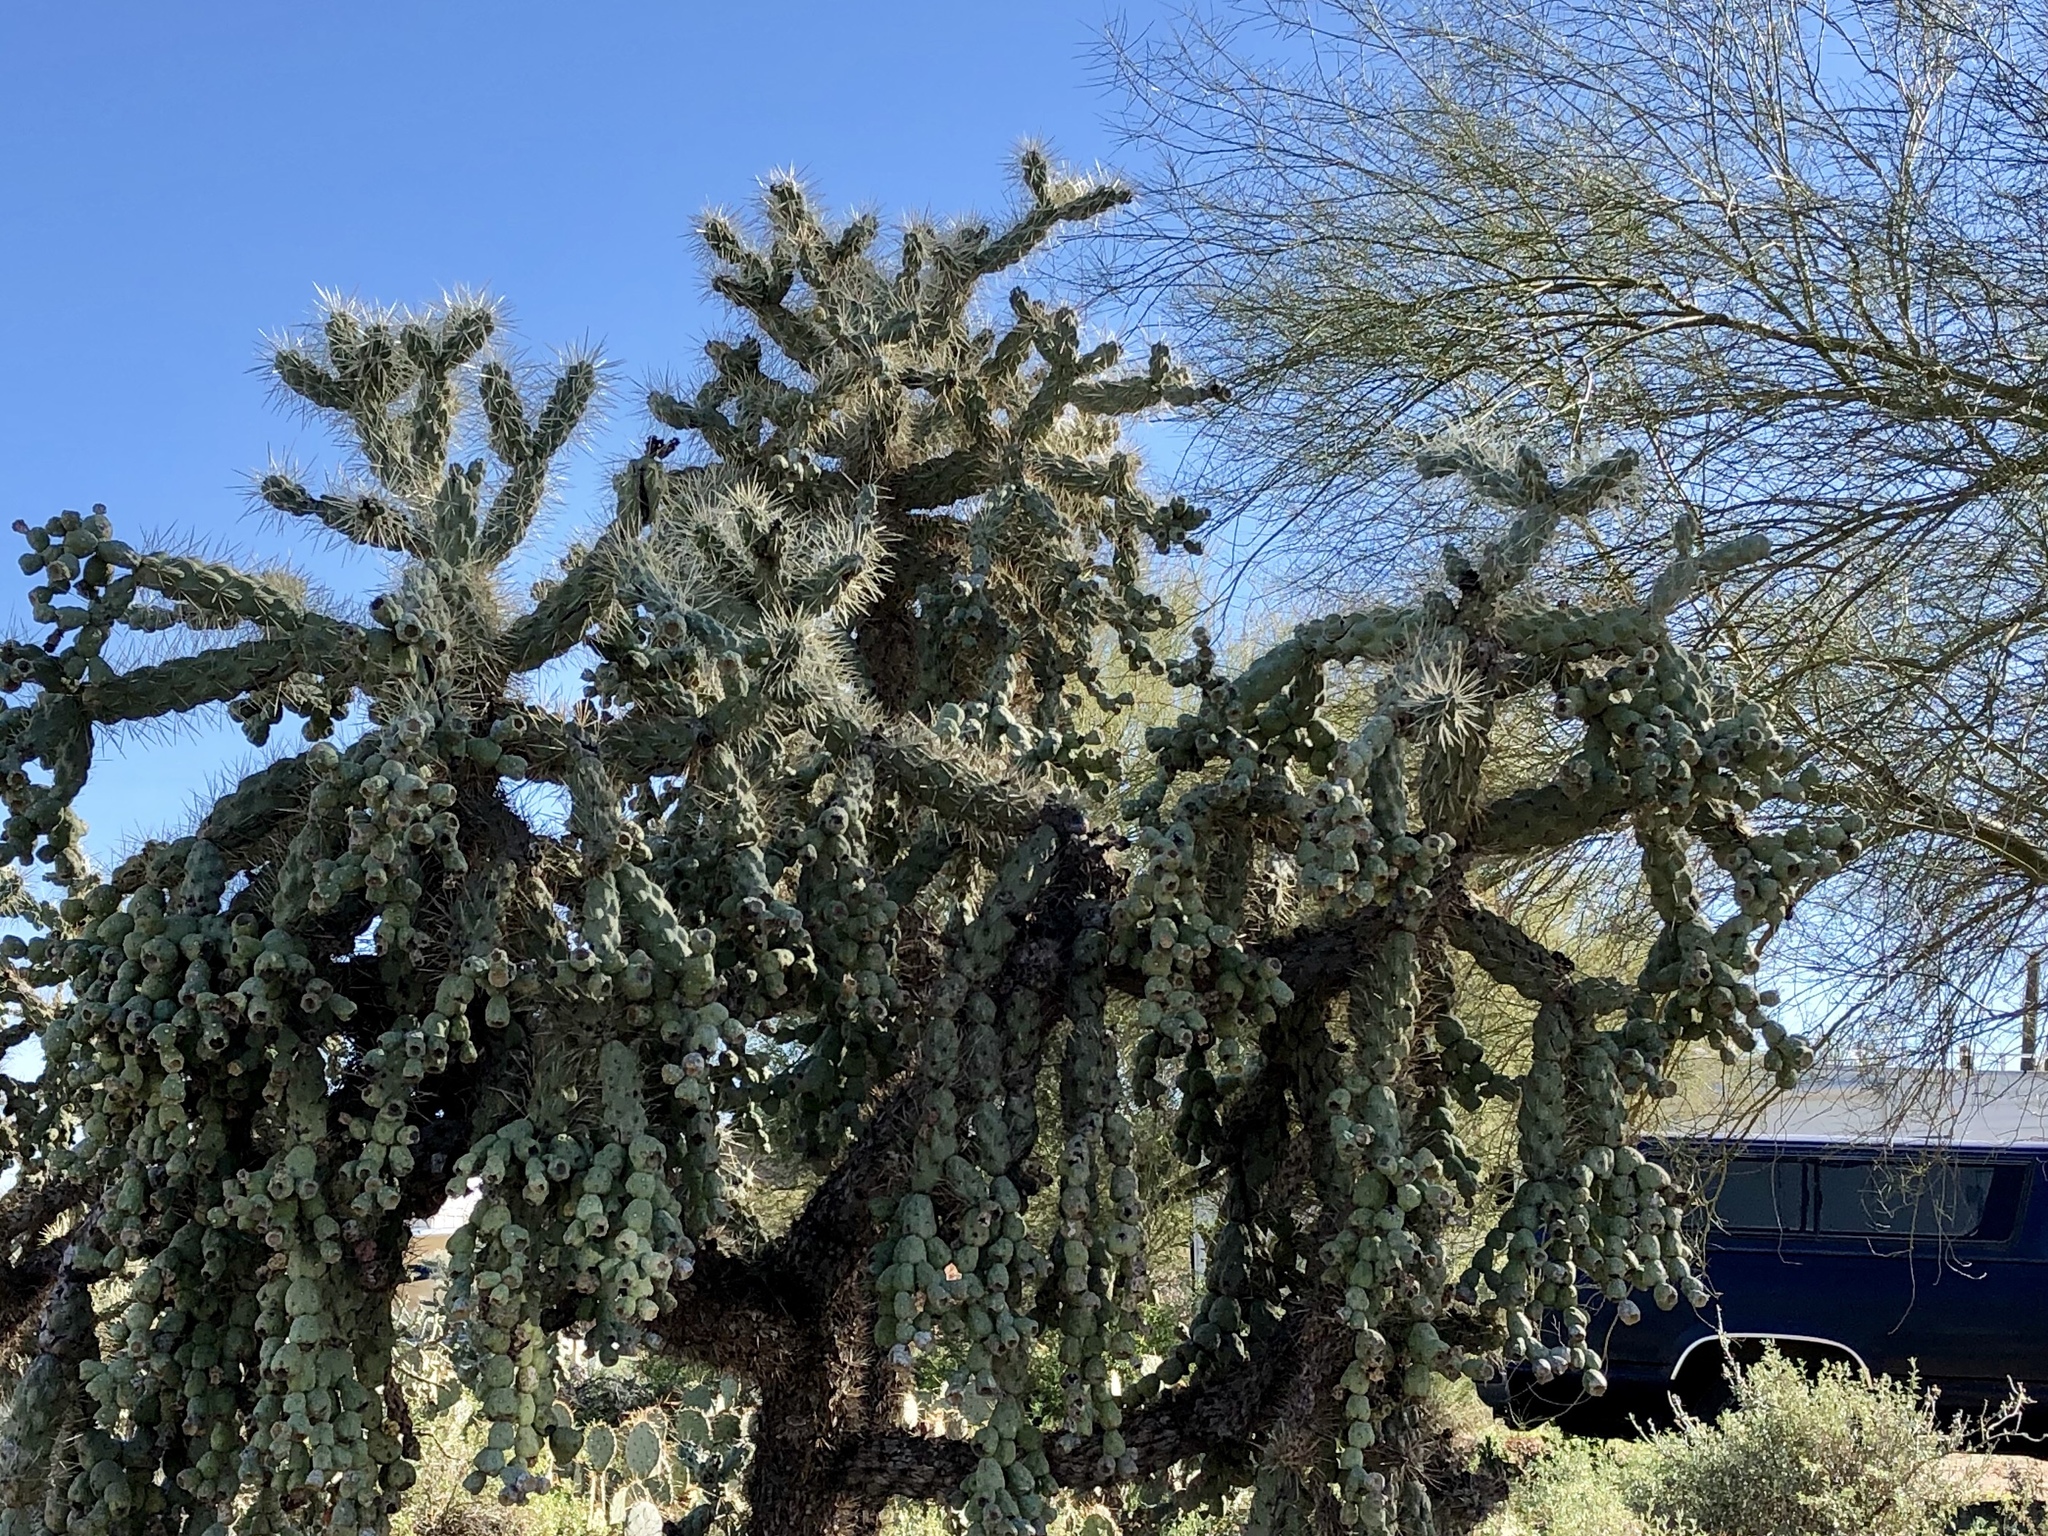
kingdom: Plantae
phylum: Tracheophyta
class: Magnoliopsida
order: Caryophyllales
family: Cactaceae
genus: Cylindropuntia
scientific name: Cylindropuntia fulgida
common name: Jumping cholla
